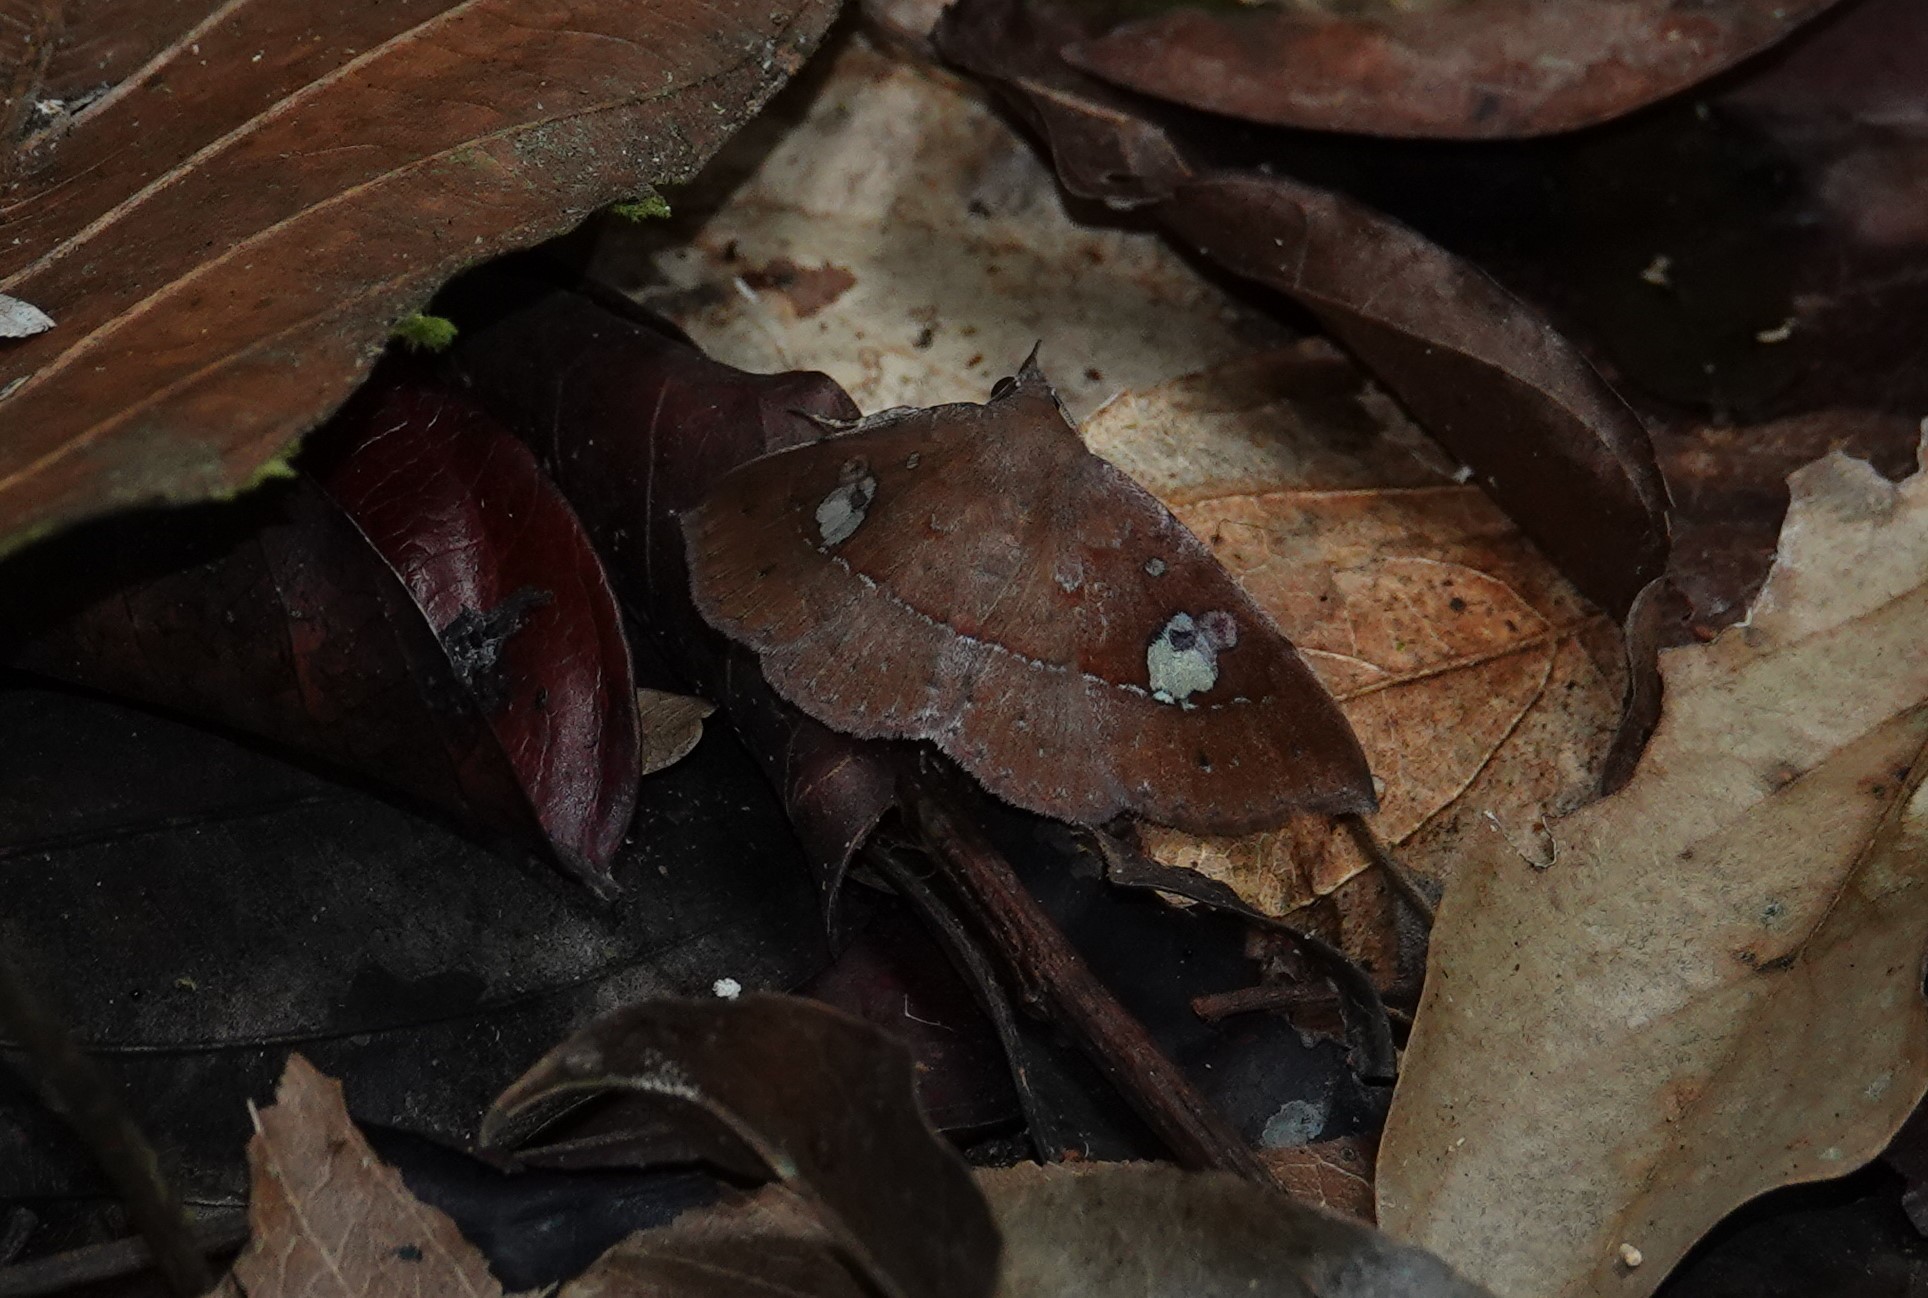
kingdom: Animalia
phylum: Arthropoda
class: Insecta
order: Lepidoptera
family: Erebidae
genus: Gorgone
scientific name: Gorgone augusta
